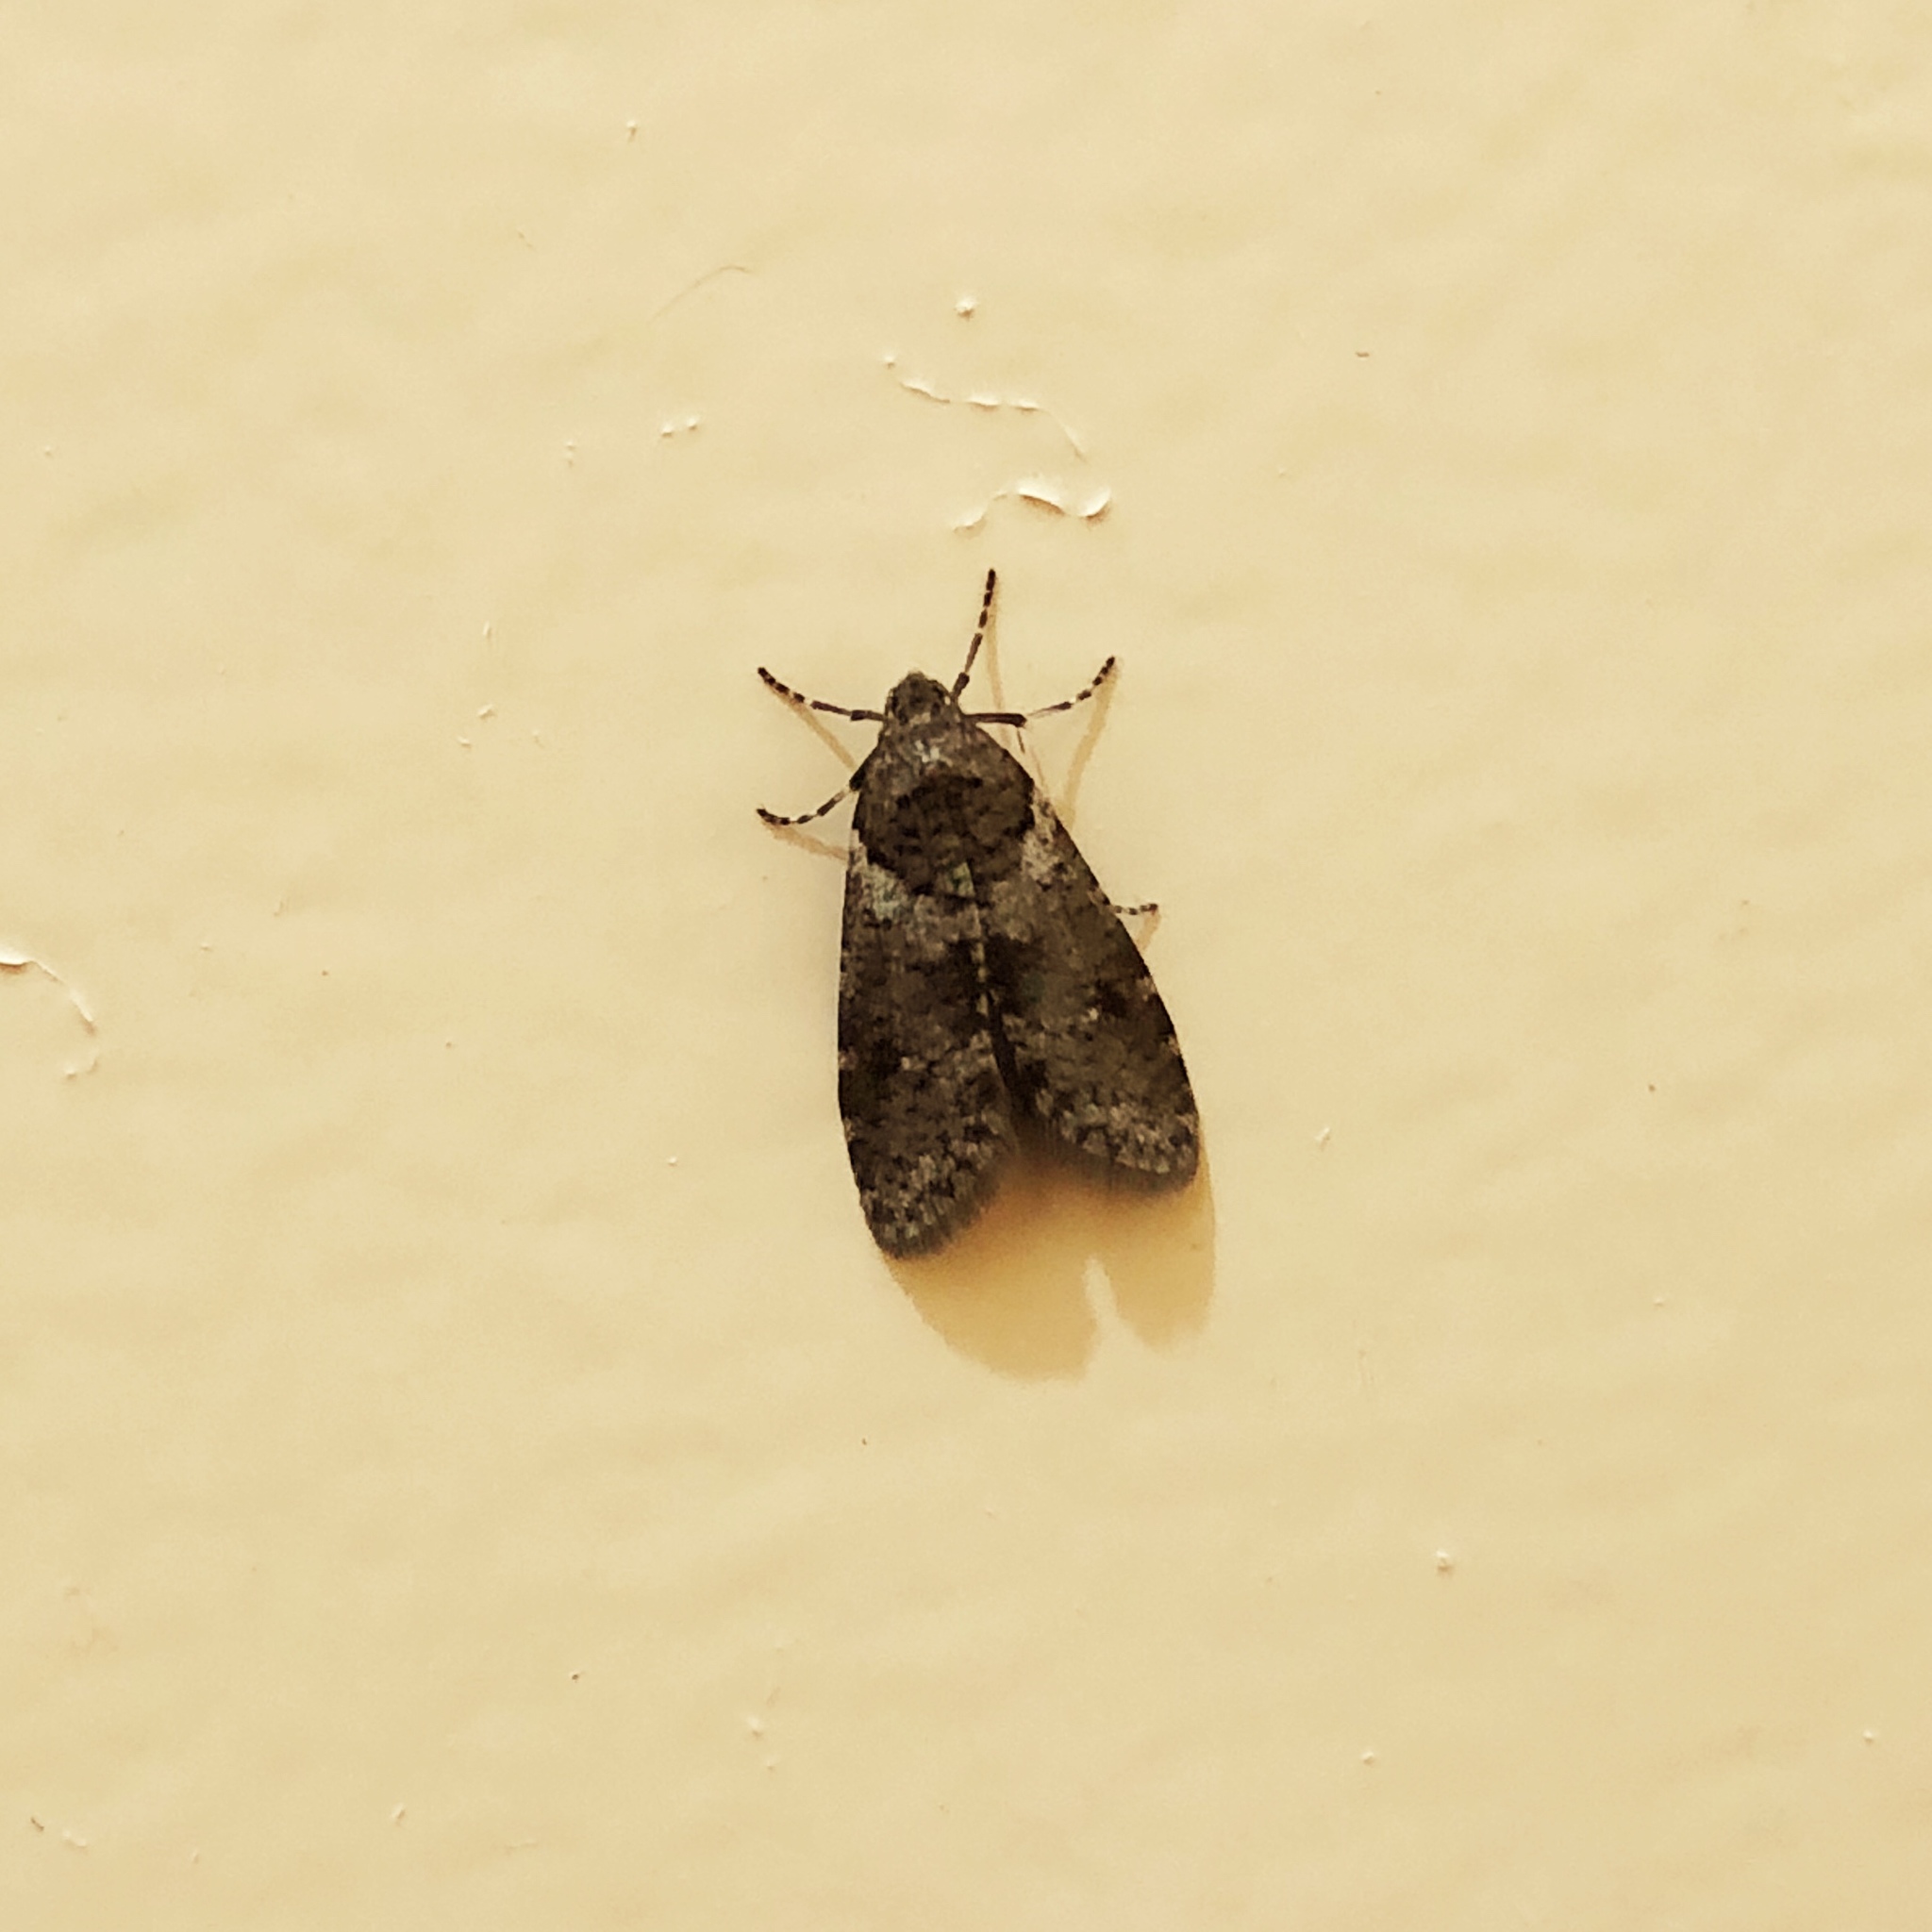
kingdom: Animalia
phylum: Arthropoda
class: Insecta
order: Lepidoptera
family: Psychidae
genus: Lepidoscia
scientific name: Lepidoscia heliochares
